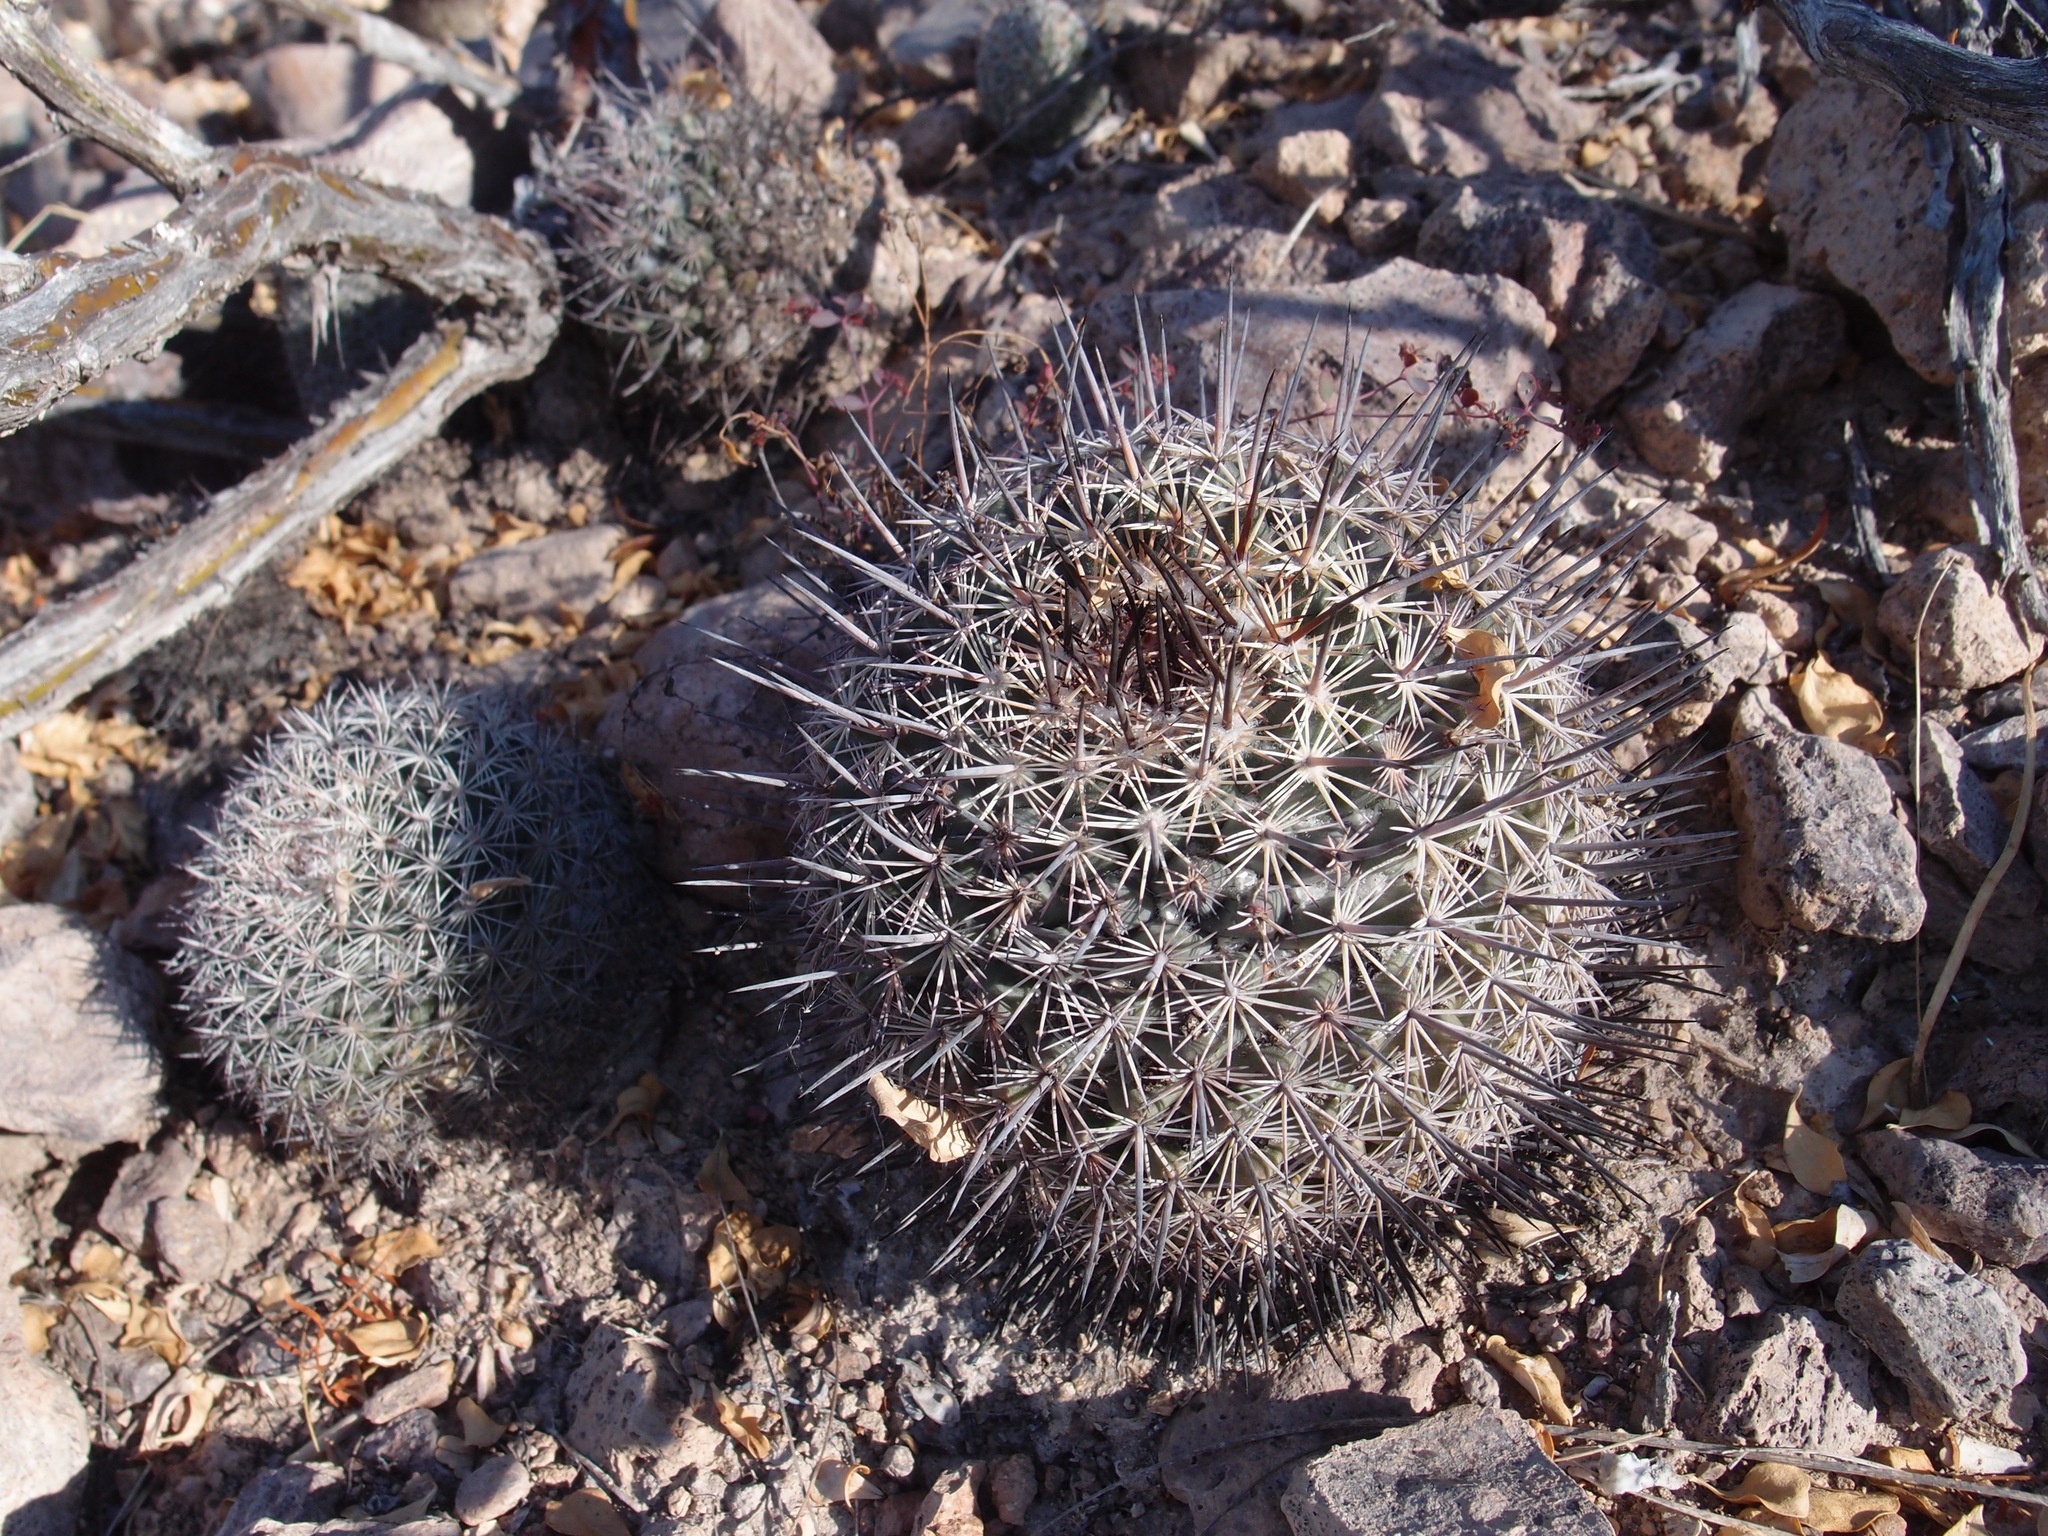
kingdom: Plantae
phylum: Tracheophyta
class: Magnoliopsida
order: Caryophyllales
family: Cactaceae
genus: Mammillaria
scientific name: Mammillaria johnstonii
